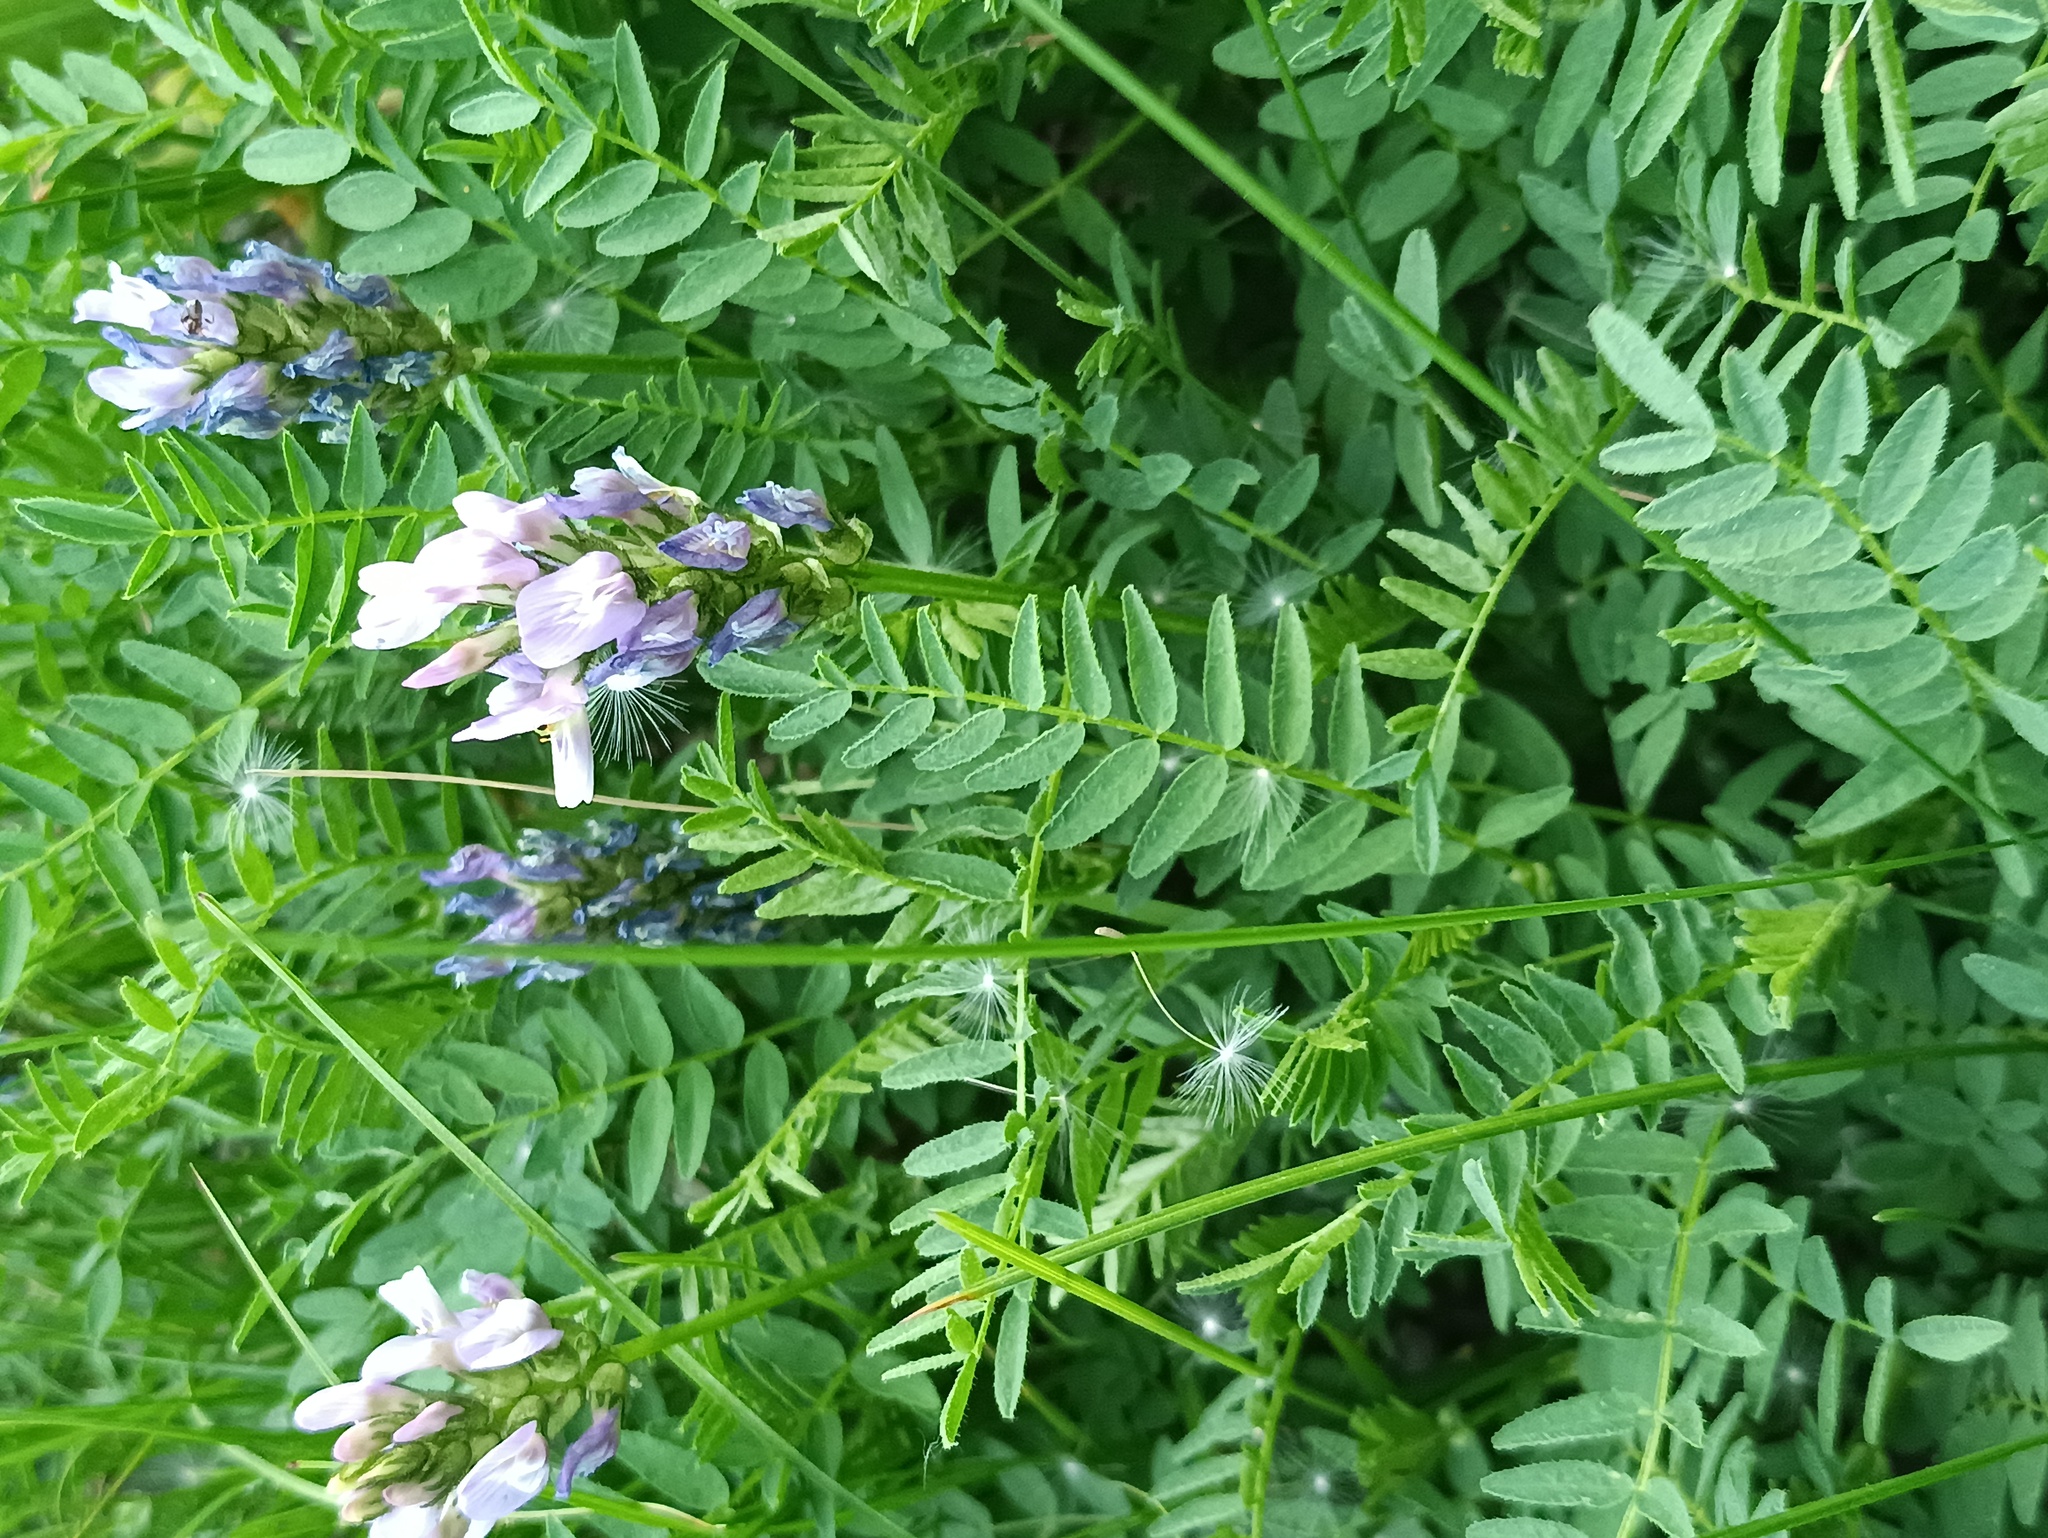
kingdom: Plantae
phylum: Tracheophyta
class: Magnoliopsida
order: Fabales
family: Fabaceae
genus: Astragalus
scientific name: Astragalus danicus
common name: Purple milk-vetch
